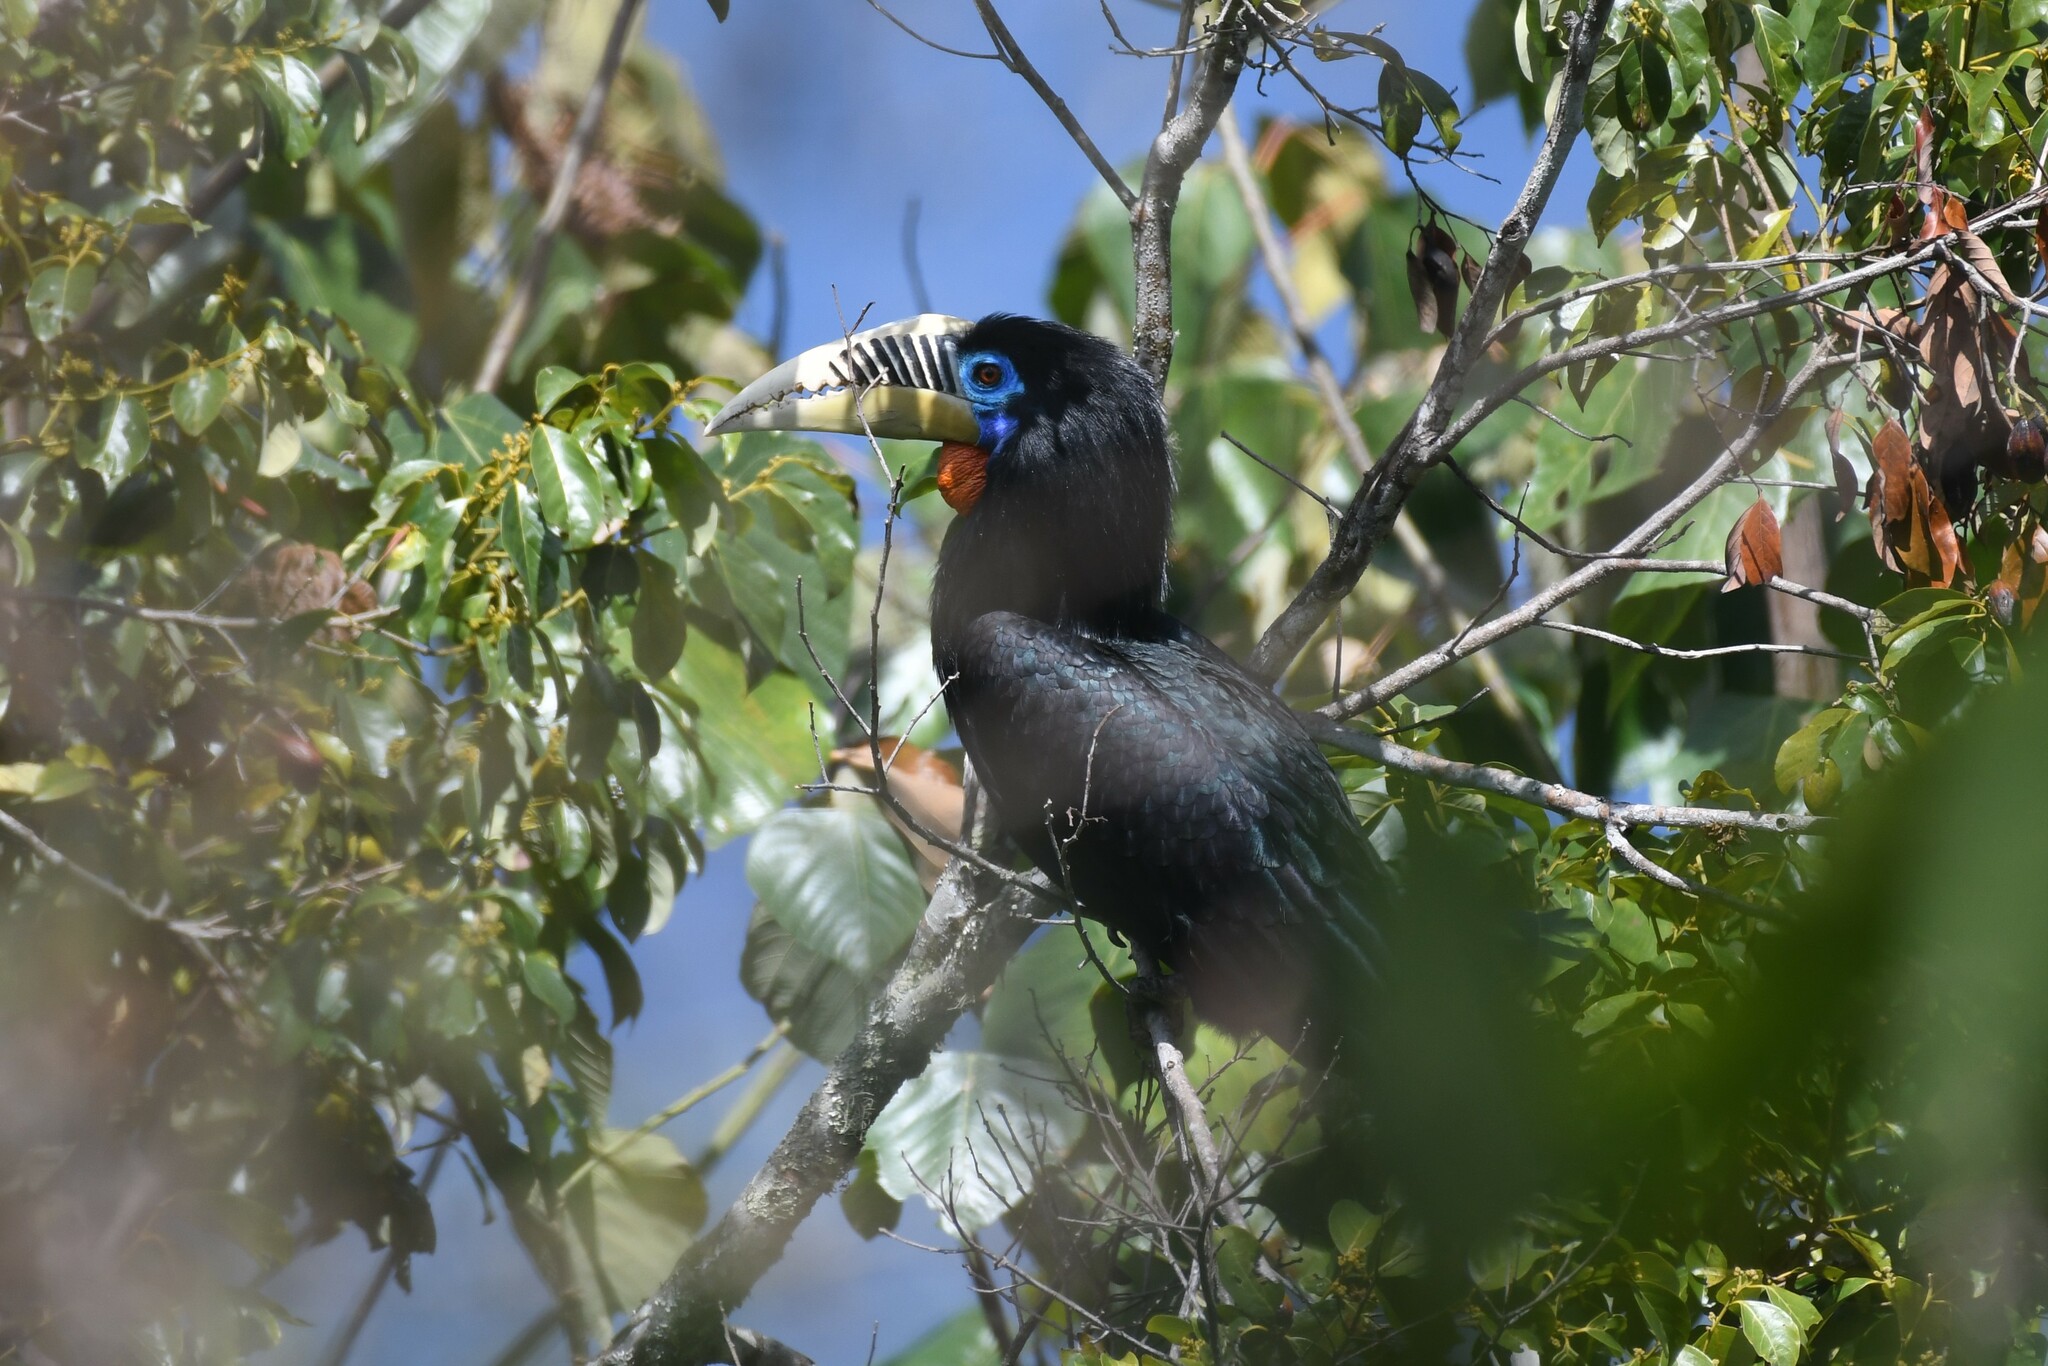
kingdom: Animalia
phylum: Chordata
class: Aves
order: Bucerotiformes
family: Bucerotidae
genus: Aceros
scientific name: Aceros nipalensis
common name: Rufous-necked hornbill
